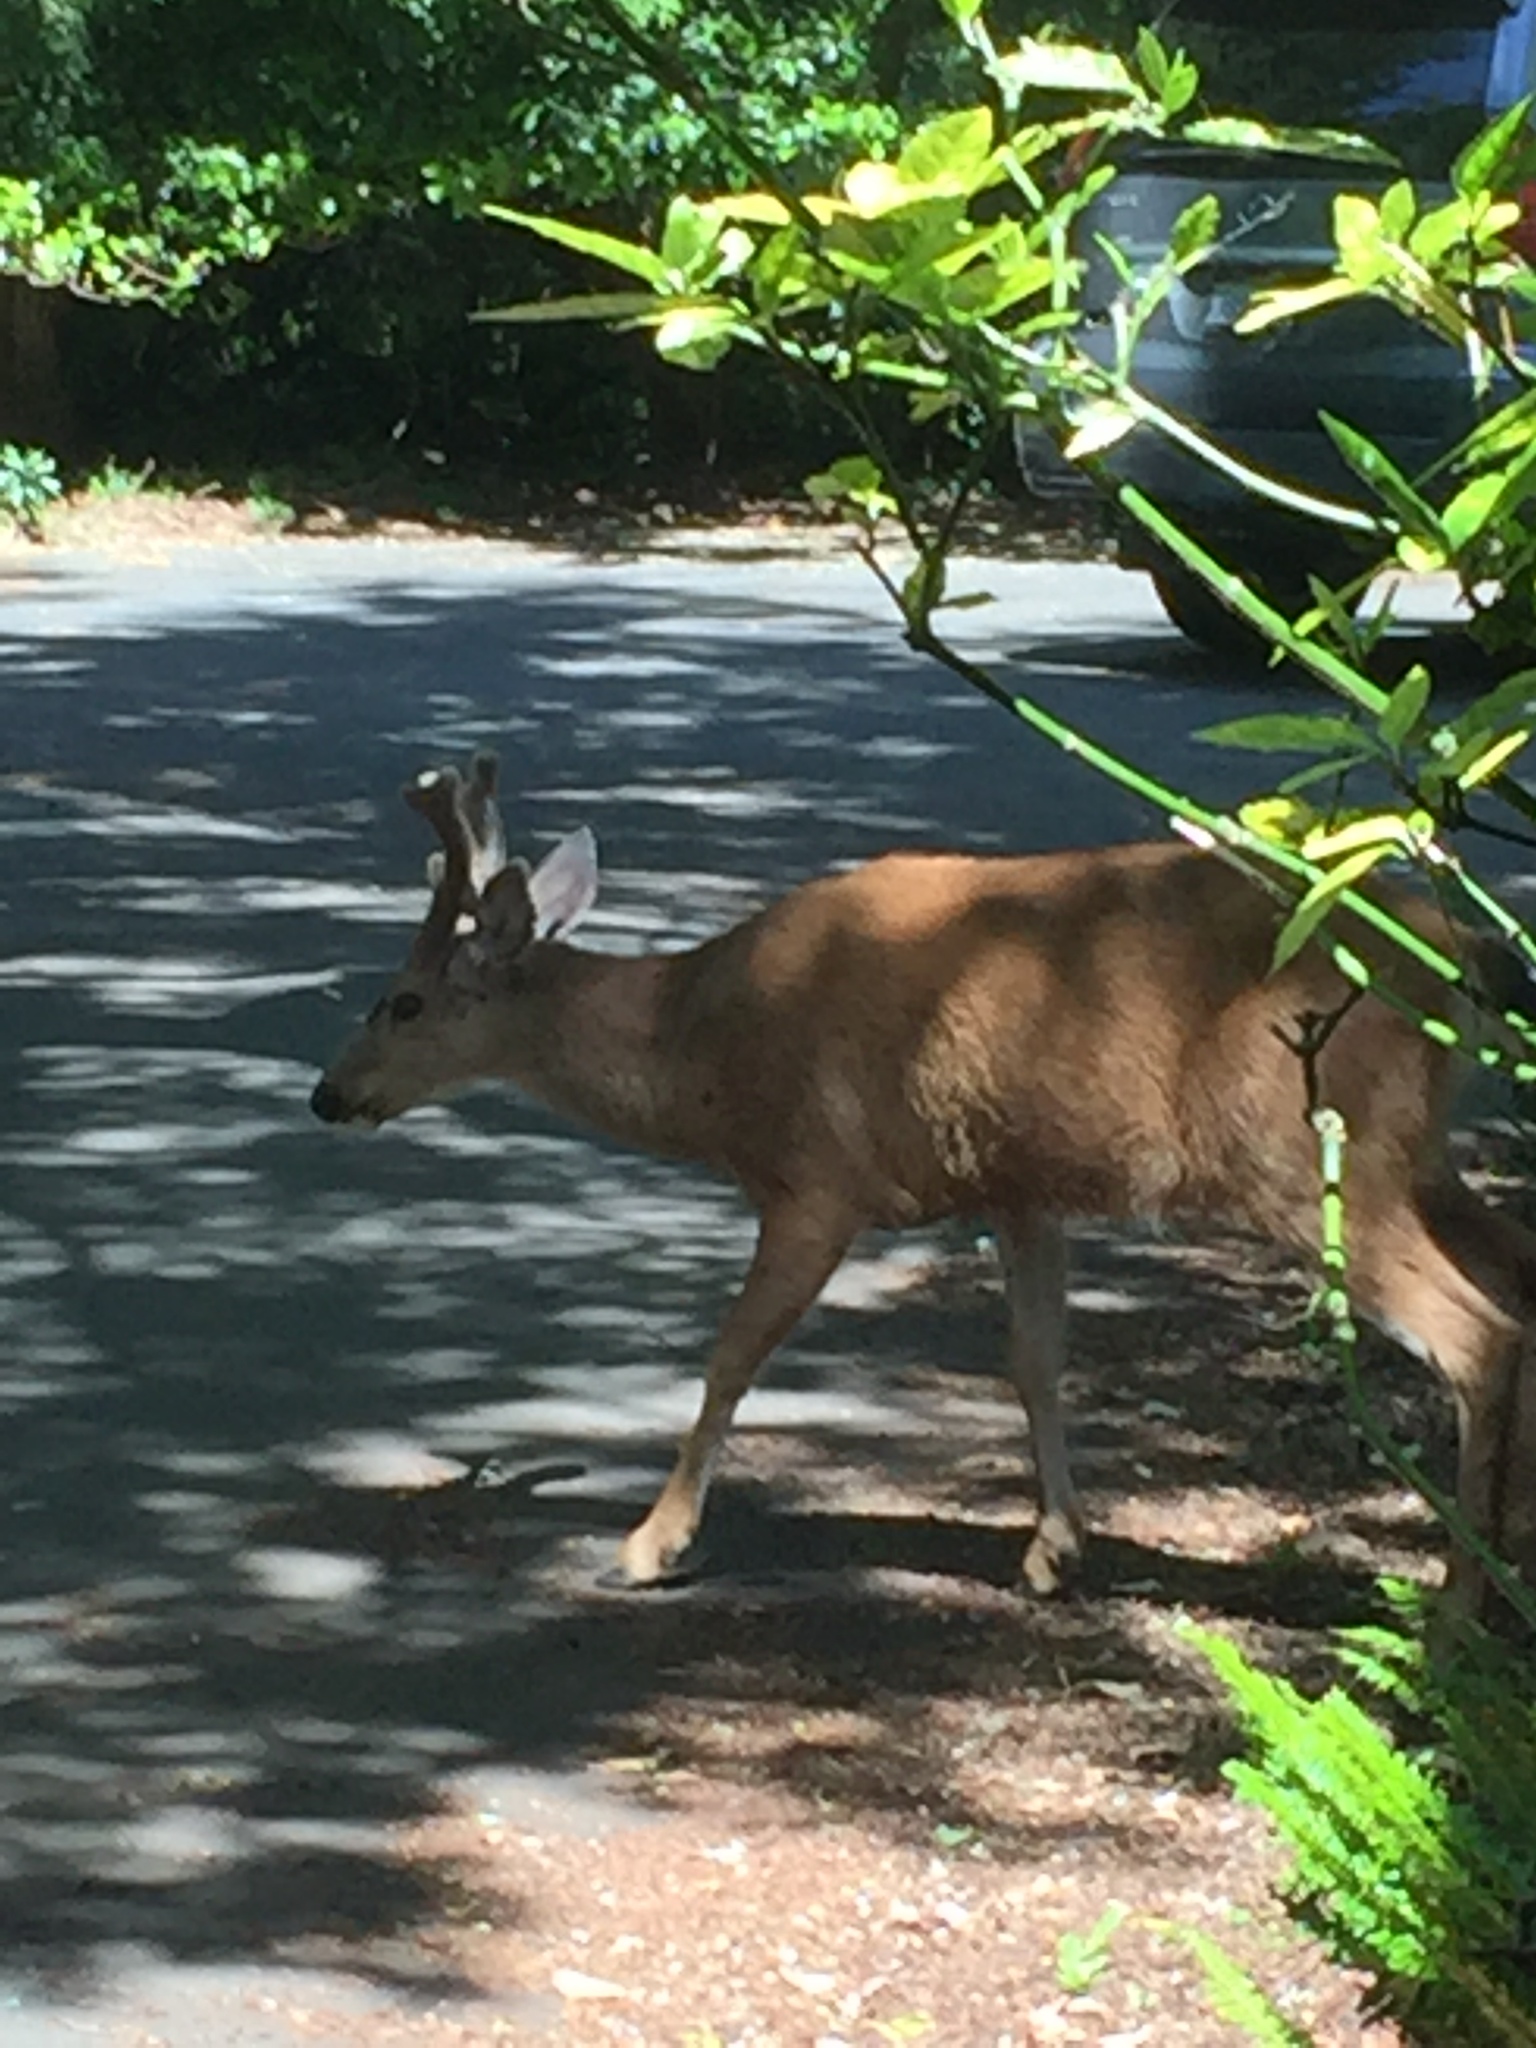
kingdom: Animalia
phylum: Chordata
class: Mammalia
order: Artiodactyla
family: Cervidae
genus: Odocoileus
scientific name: Odocoileus hemionus
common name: Mule deer
